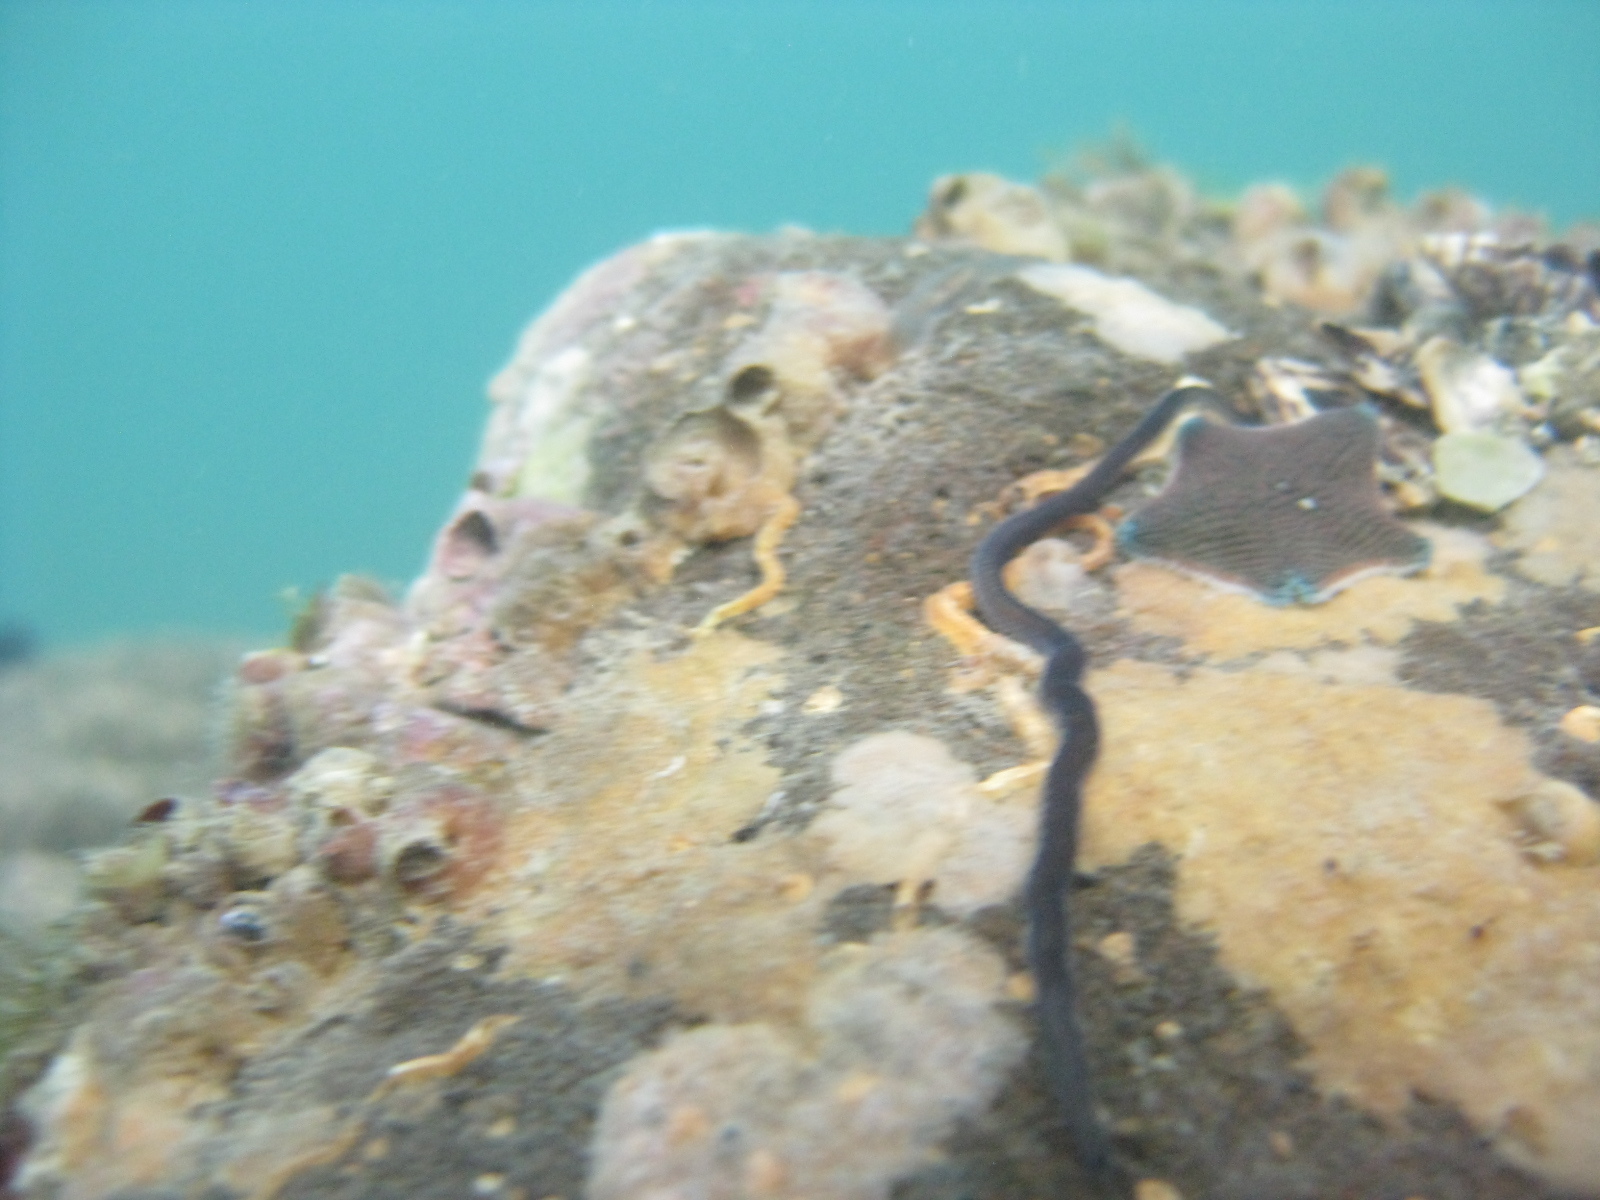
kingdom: Animalia
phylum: Annelida
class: Polychaeta
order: Phyllodocida
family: Phyllodocidae
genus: Eulalia
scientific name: Eulalia microphylla
